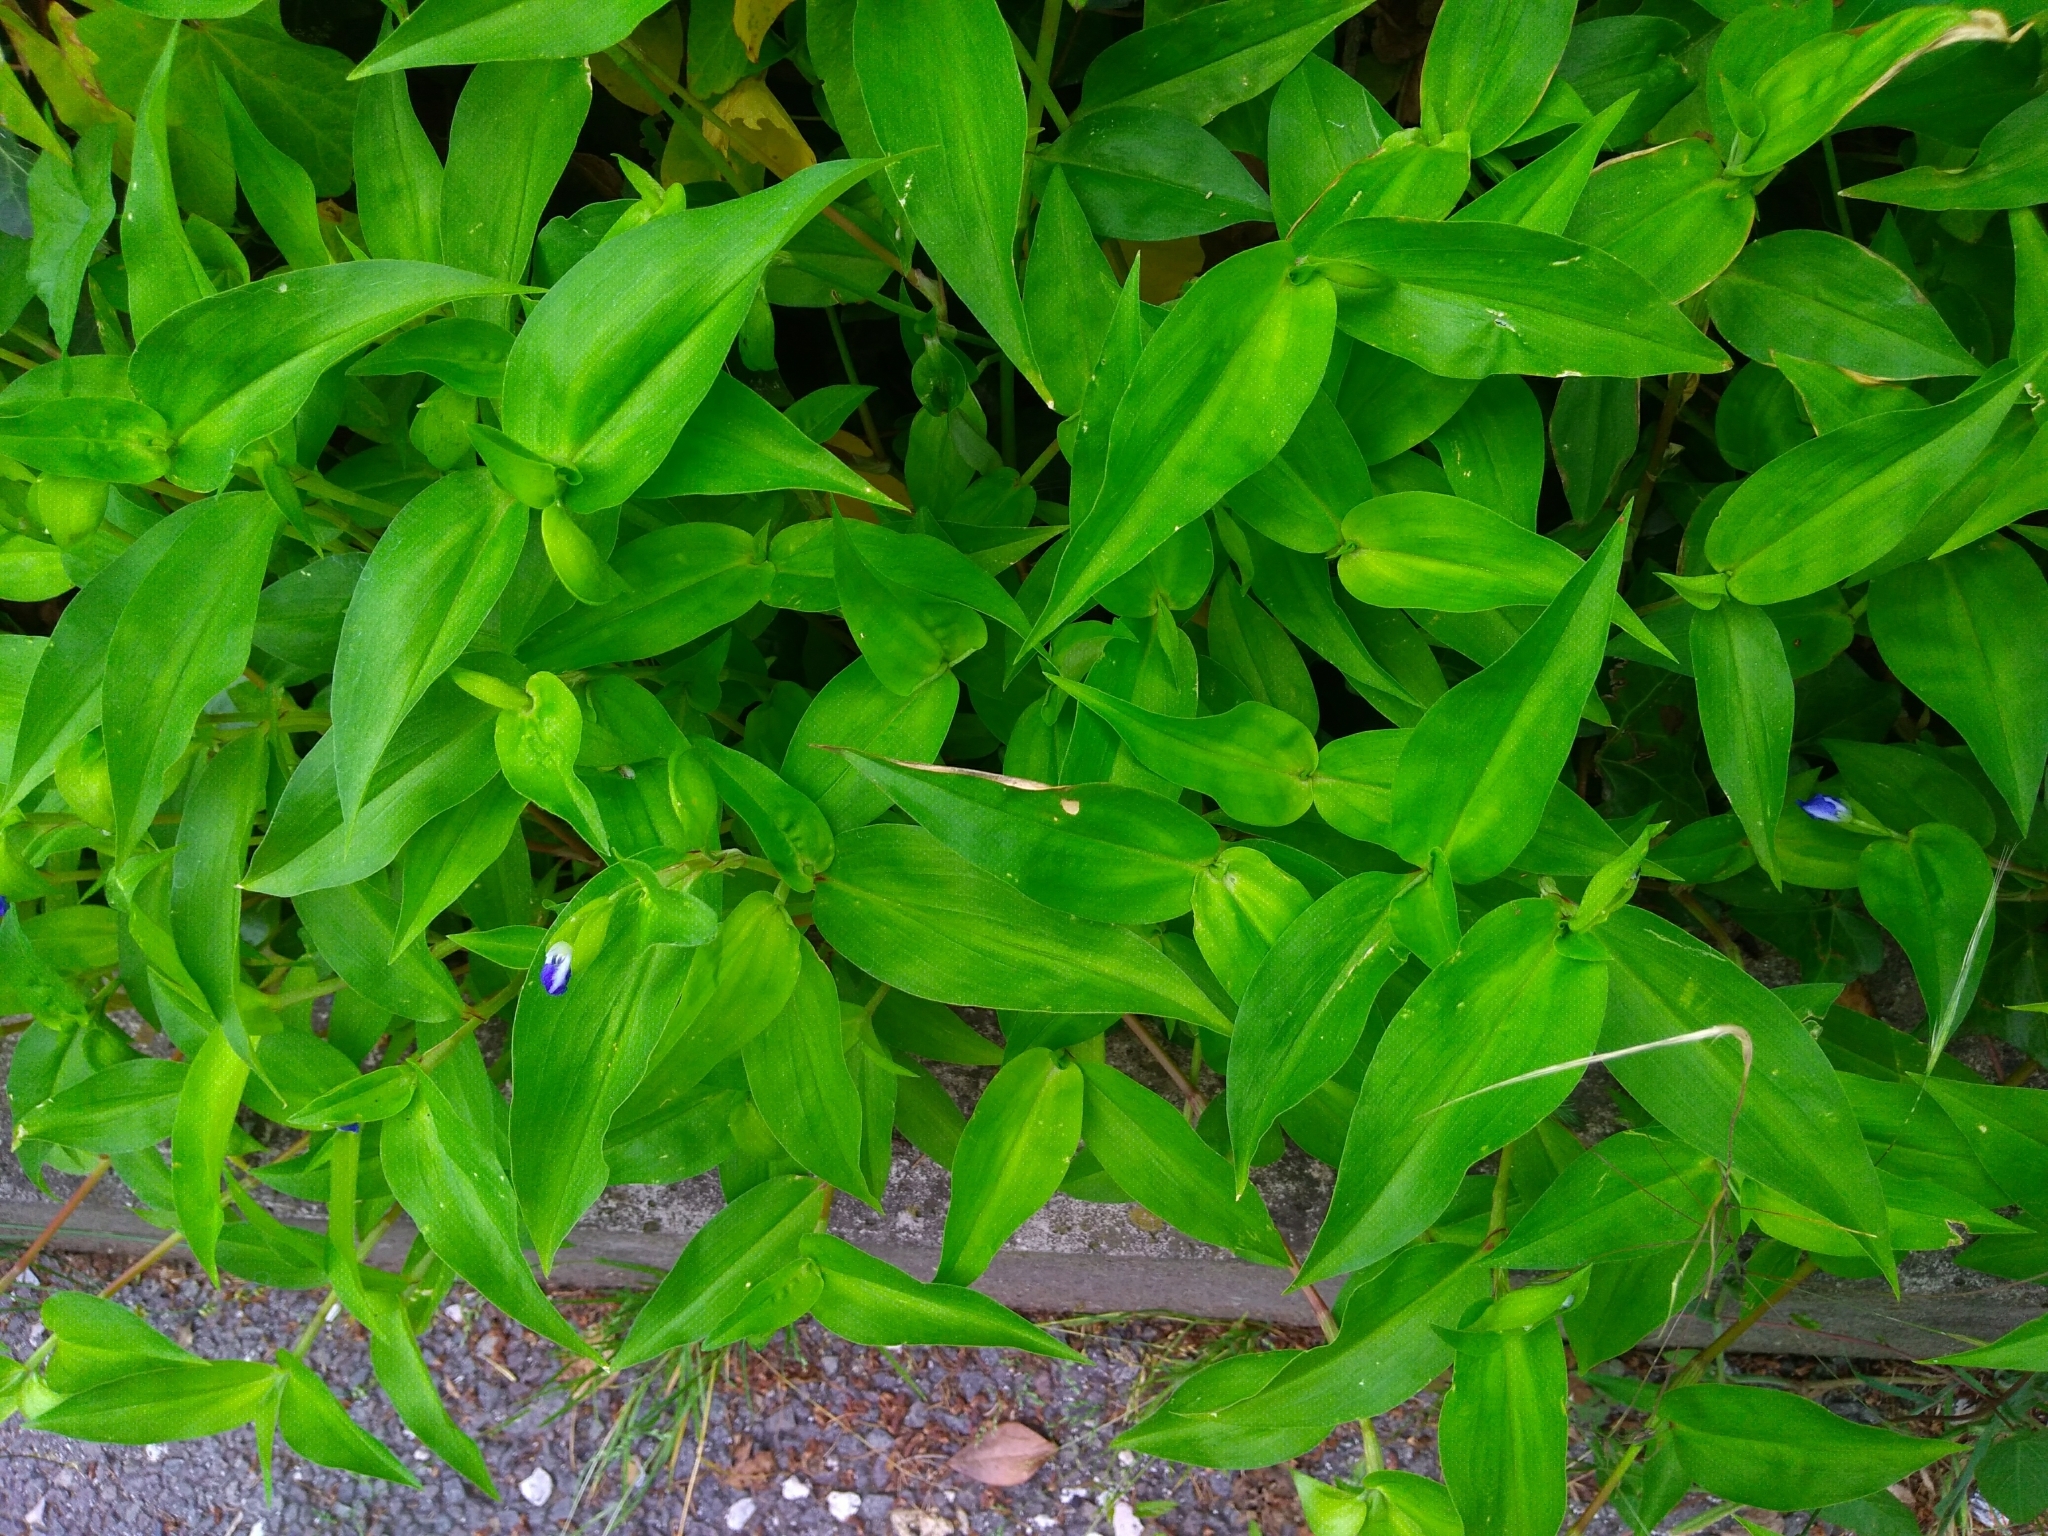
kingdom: Plantae
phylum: Tracheophyta
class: Liliopsida
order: Commelinales
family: Commelinaceae
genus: Commelina
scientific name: Commelina communis
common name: Asiatic dayflower
